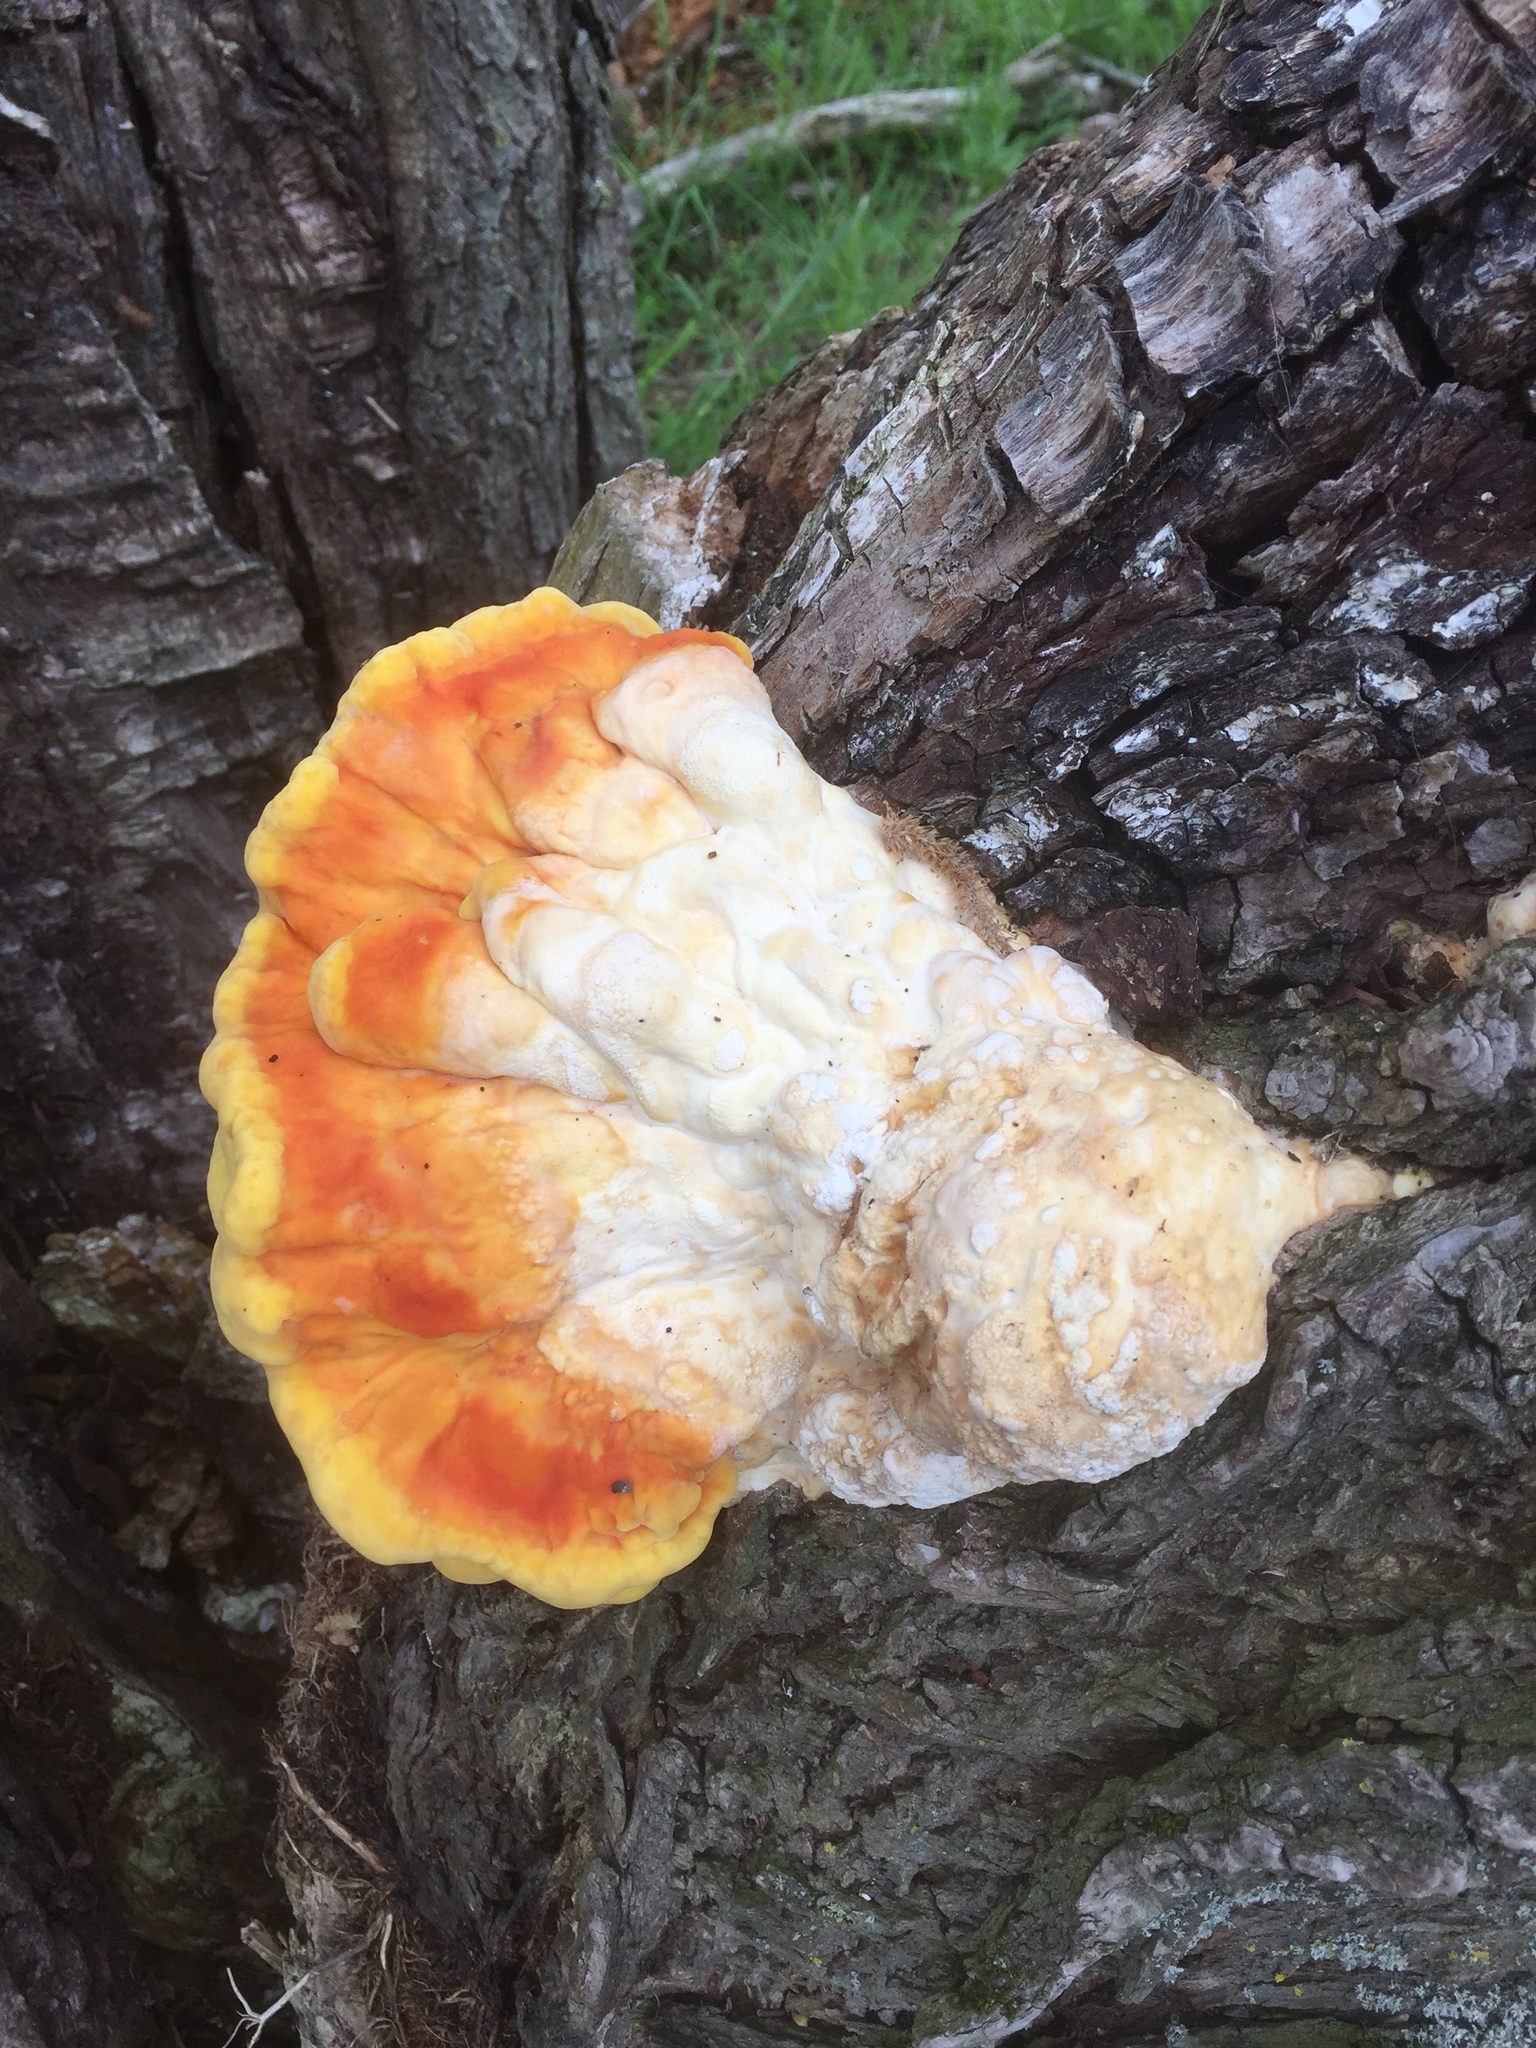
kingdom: Fungi
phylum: Basidiomycota
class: Agaricomycetes
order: Polyporales
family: Laetiporaceae
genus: Laetiporus
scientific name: Laetiporus sulphureus
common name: Chicken of the woods
